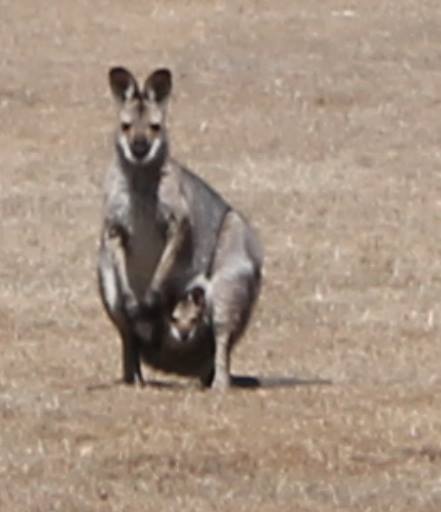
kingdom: Animalia
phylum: Chordata
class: Mammalia
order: Diprotodontia
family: Macropodidae
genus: Notamacropus
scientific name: Notamacropus rufogriseus
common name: Red-necked wallaby
